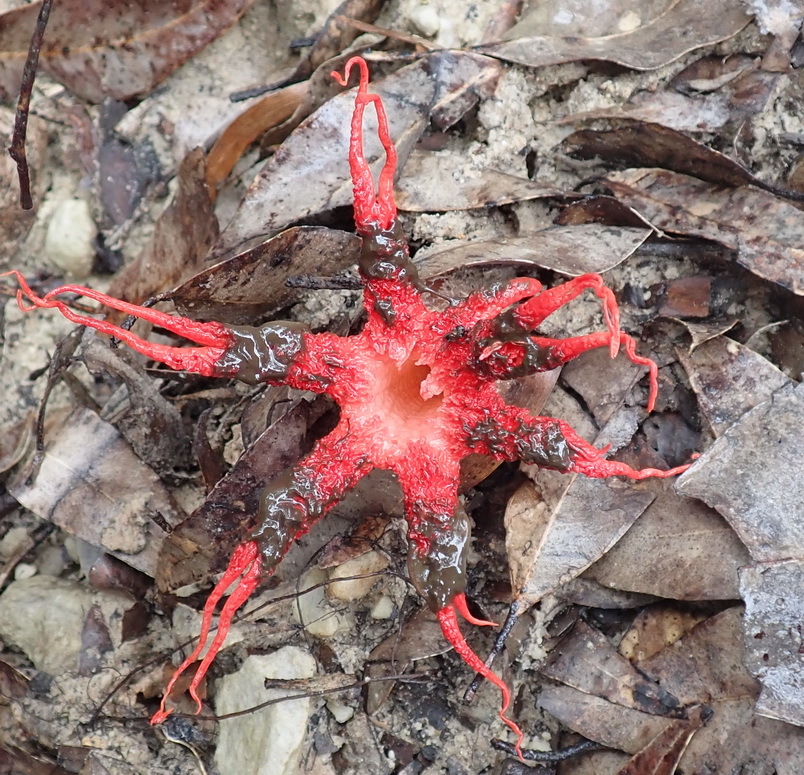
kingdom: Fungi
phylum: Basidiomycota
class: Agaricomycetes
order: Phallales
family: Phallaceae
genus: Clathrus
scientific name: Clathrus archeri
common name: Devil's fingers
